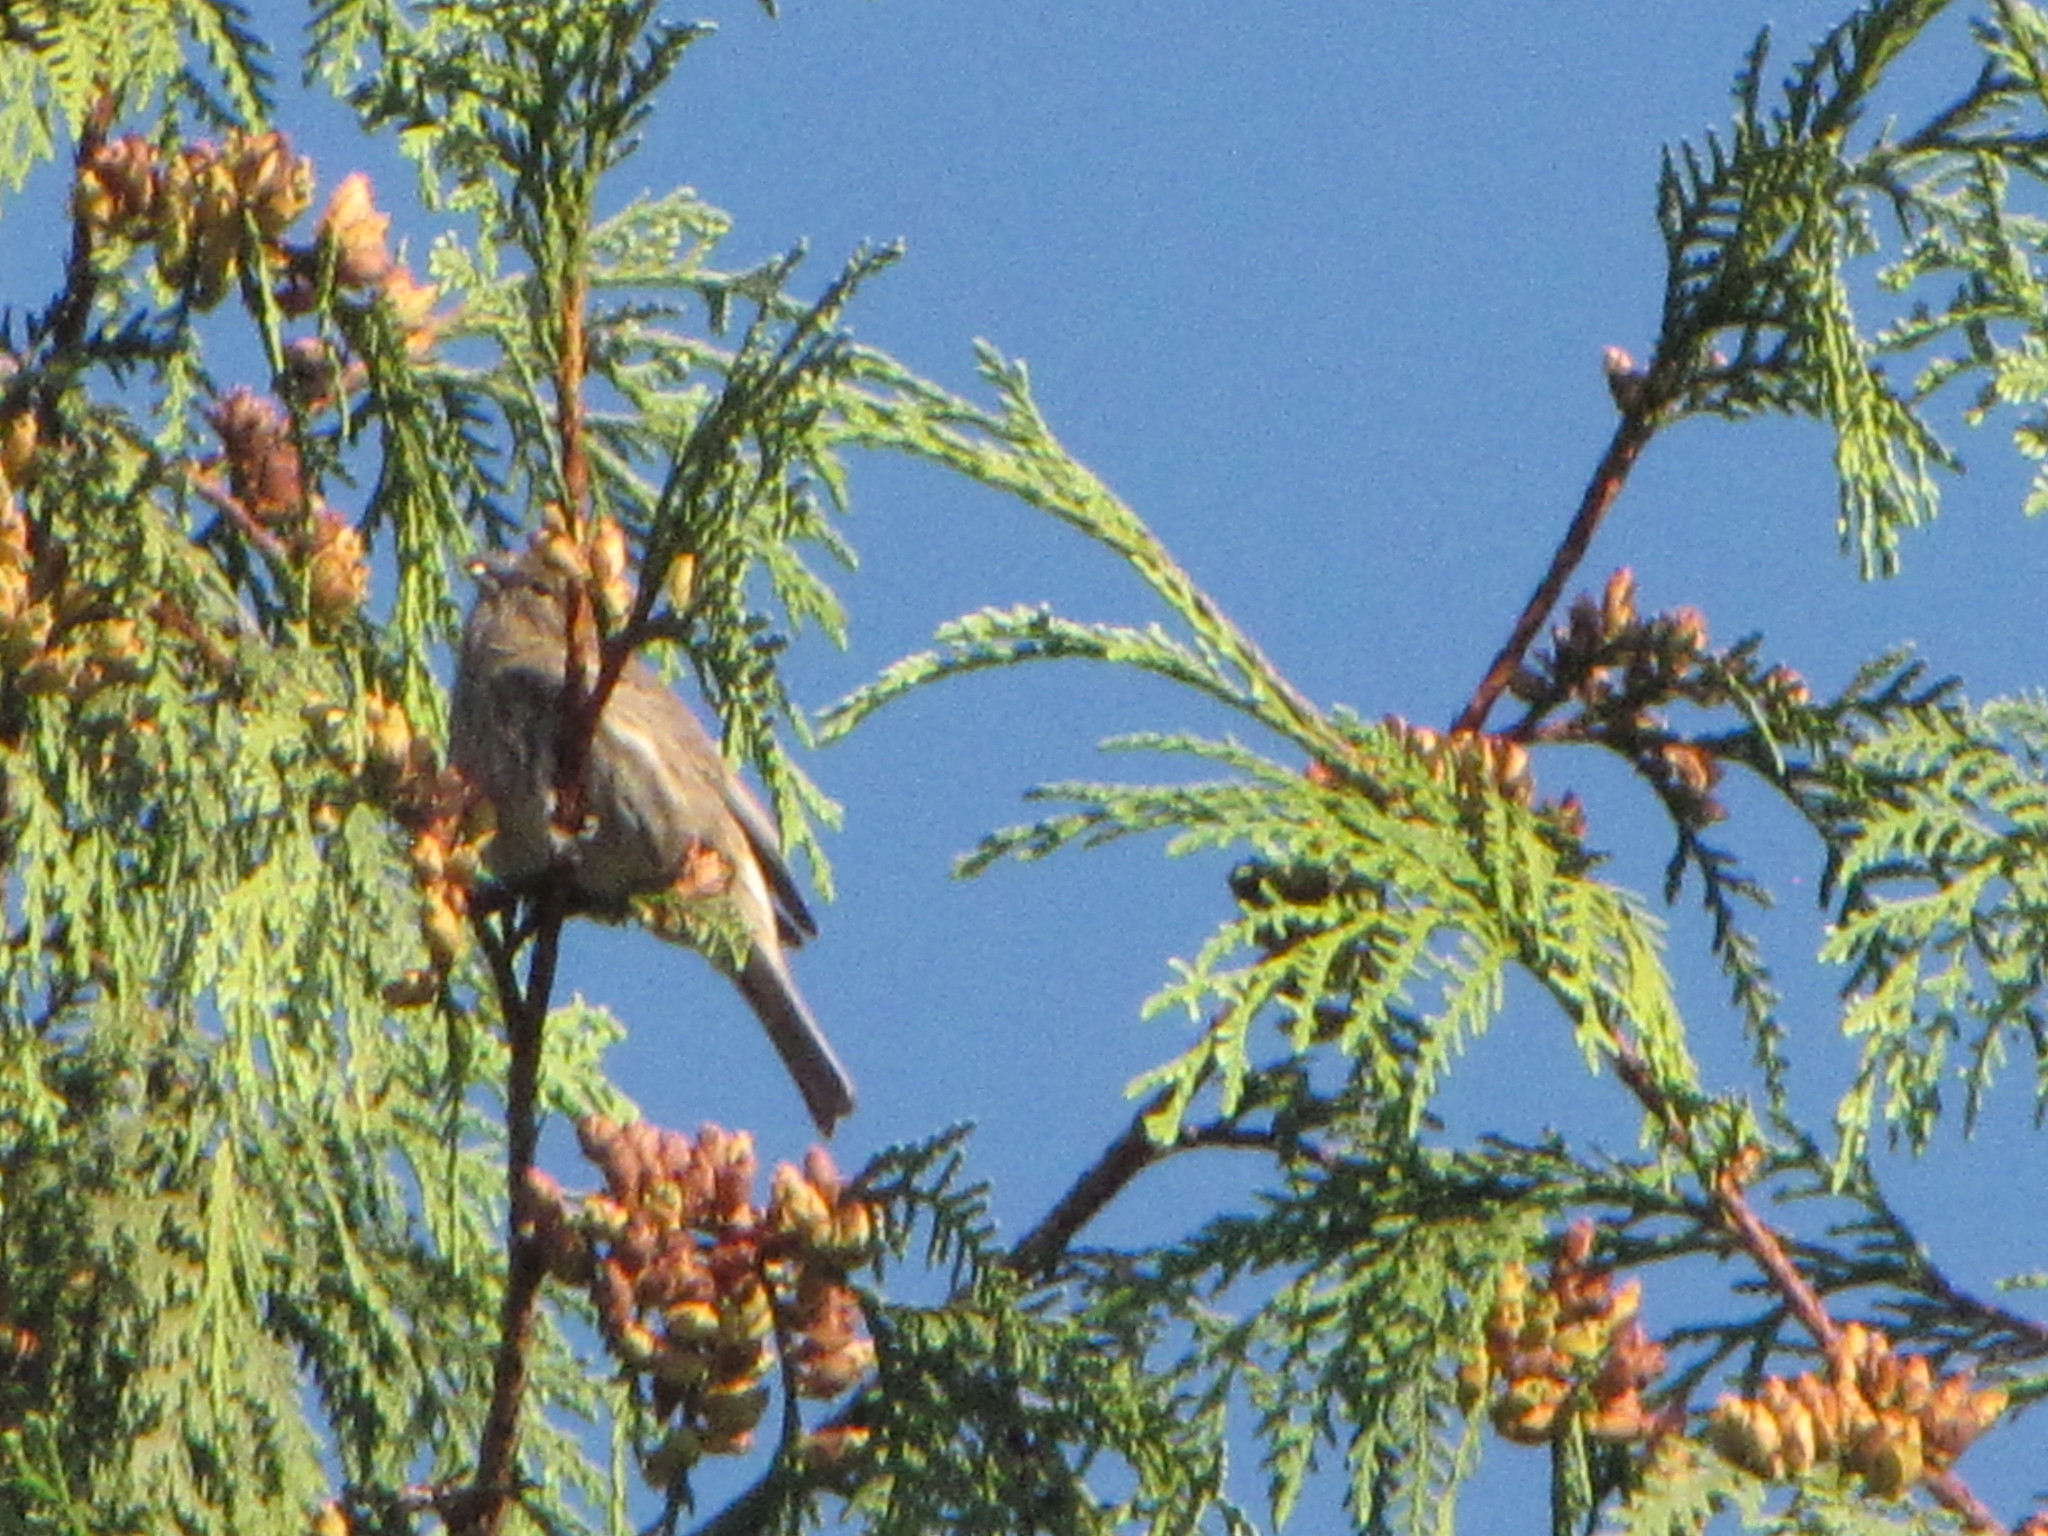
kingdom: Animalia
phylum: Chordata
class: Aves
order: Passeriformes
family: Fringillidae
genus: Haemorhous
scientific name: Haemorhous mexicanus
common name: House finch
